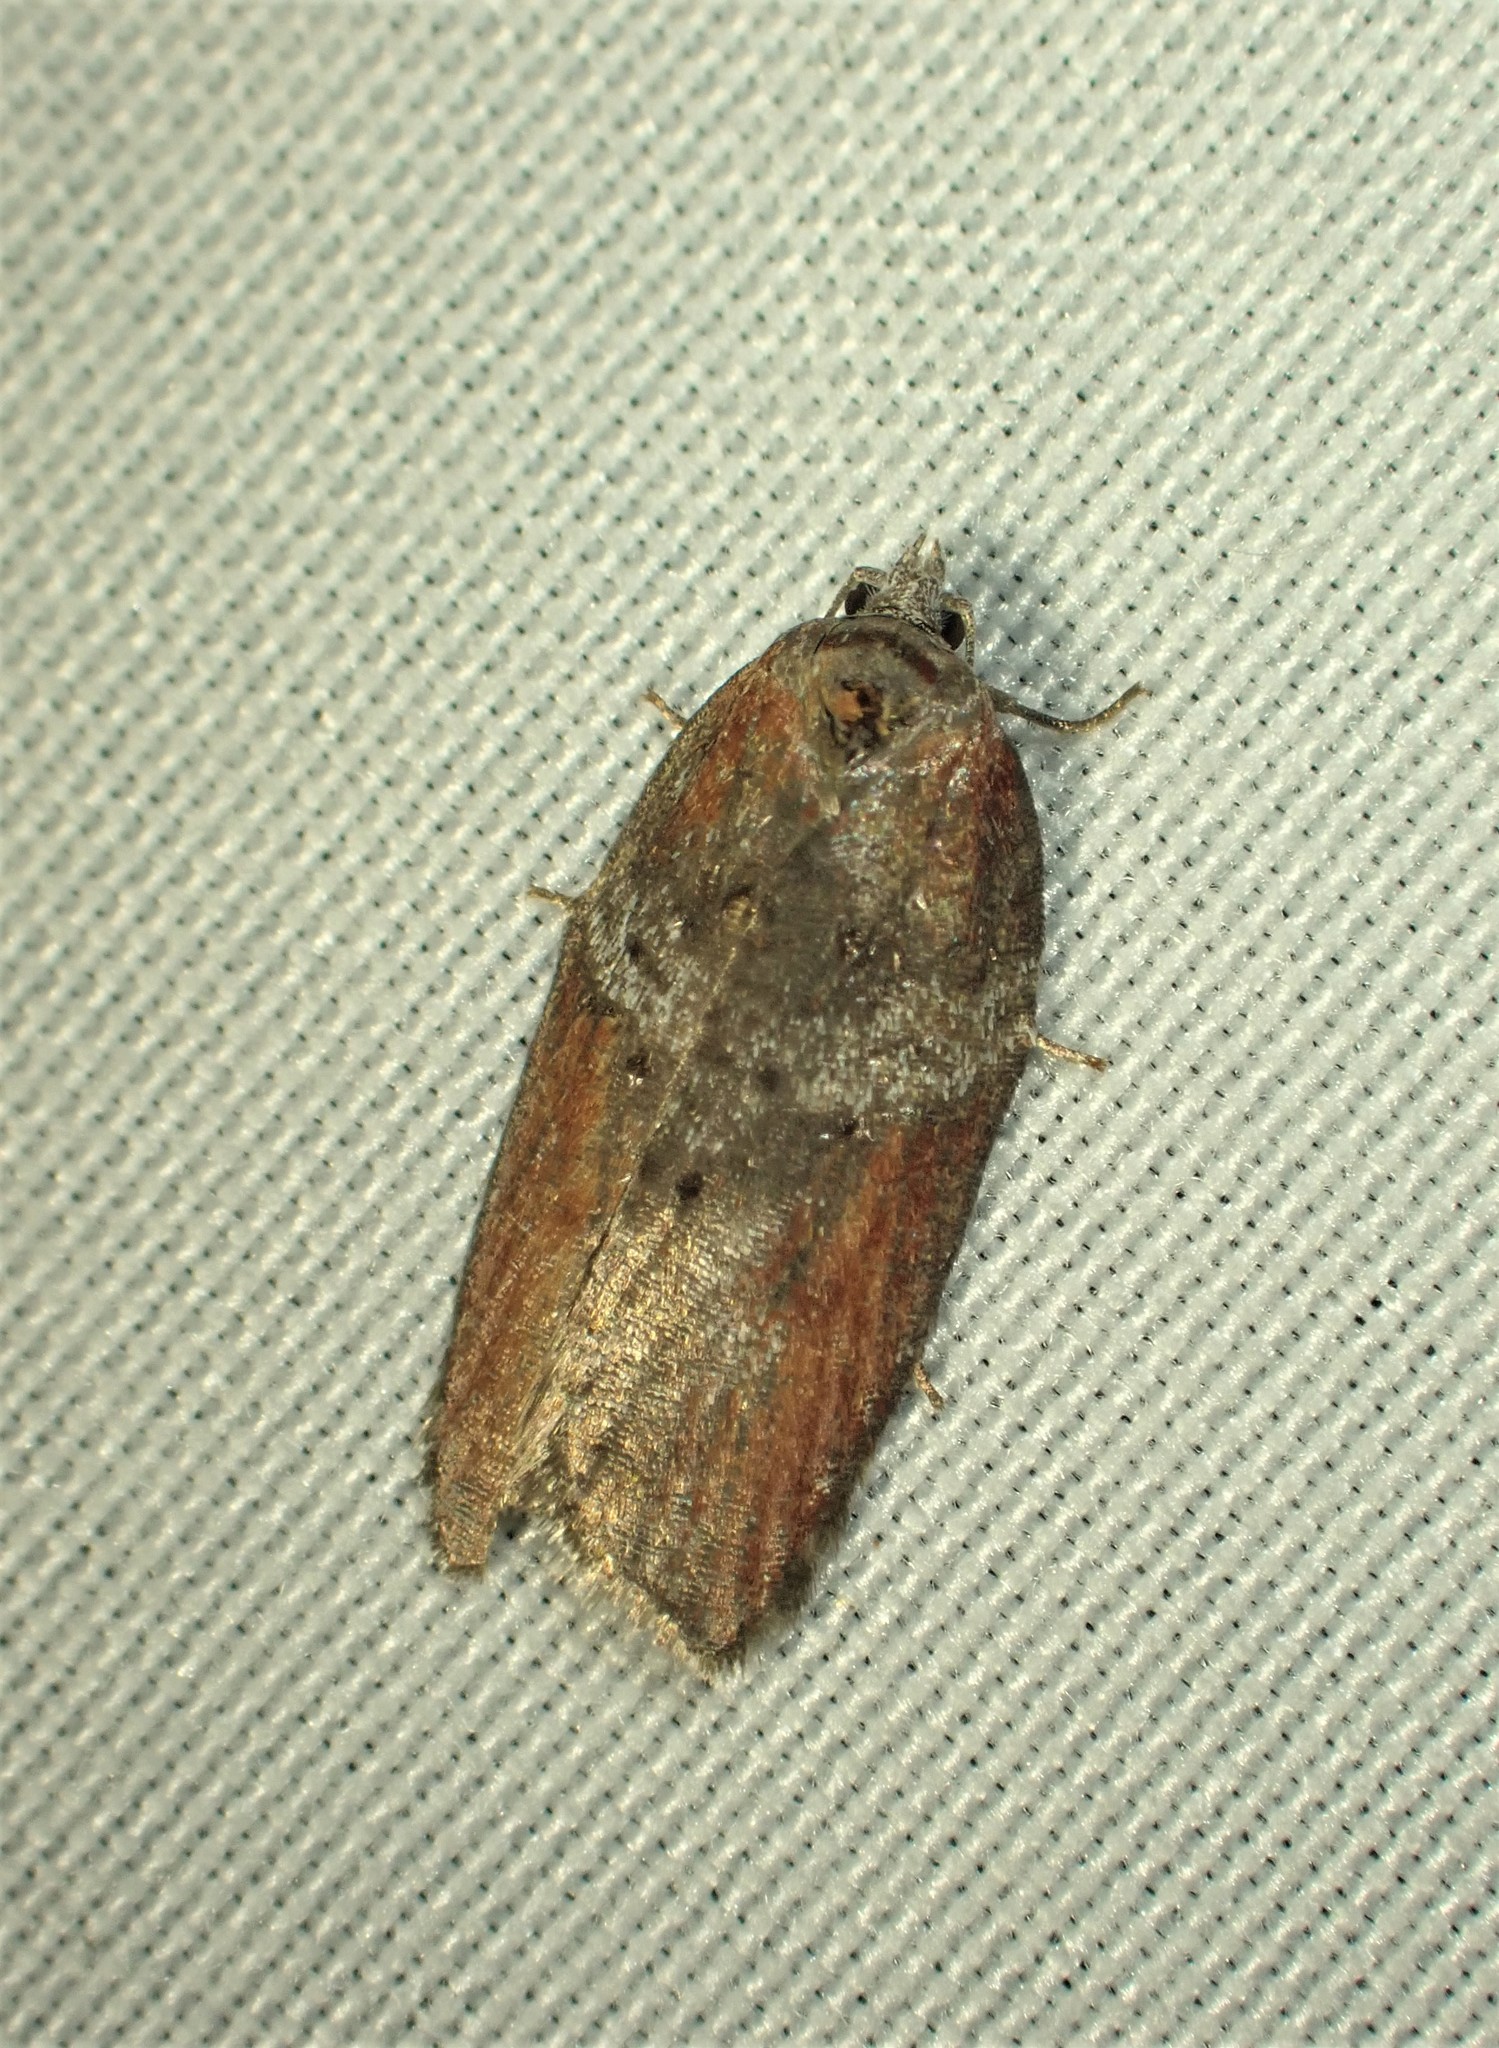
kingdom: Animalia
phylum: Arthropoda
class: Insecta
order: Lepidoptera
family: Tortricidae
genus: Acleris
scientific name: Acleris celiana
